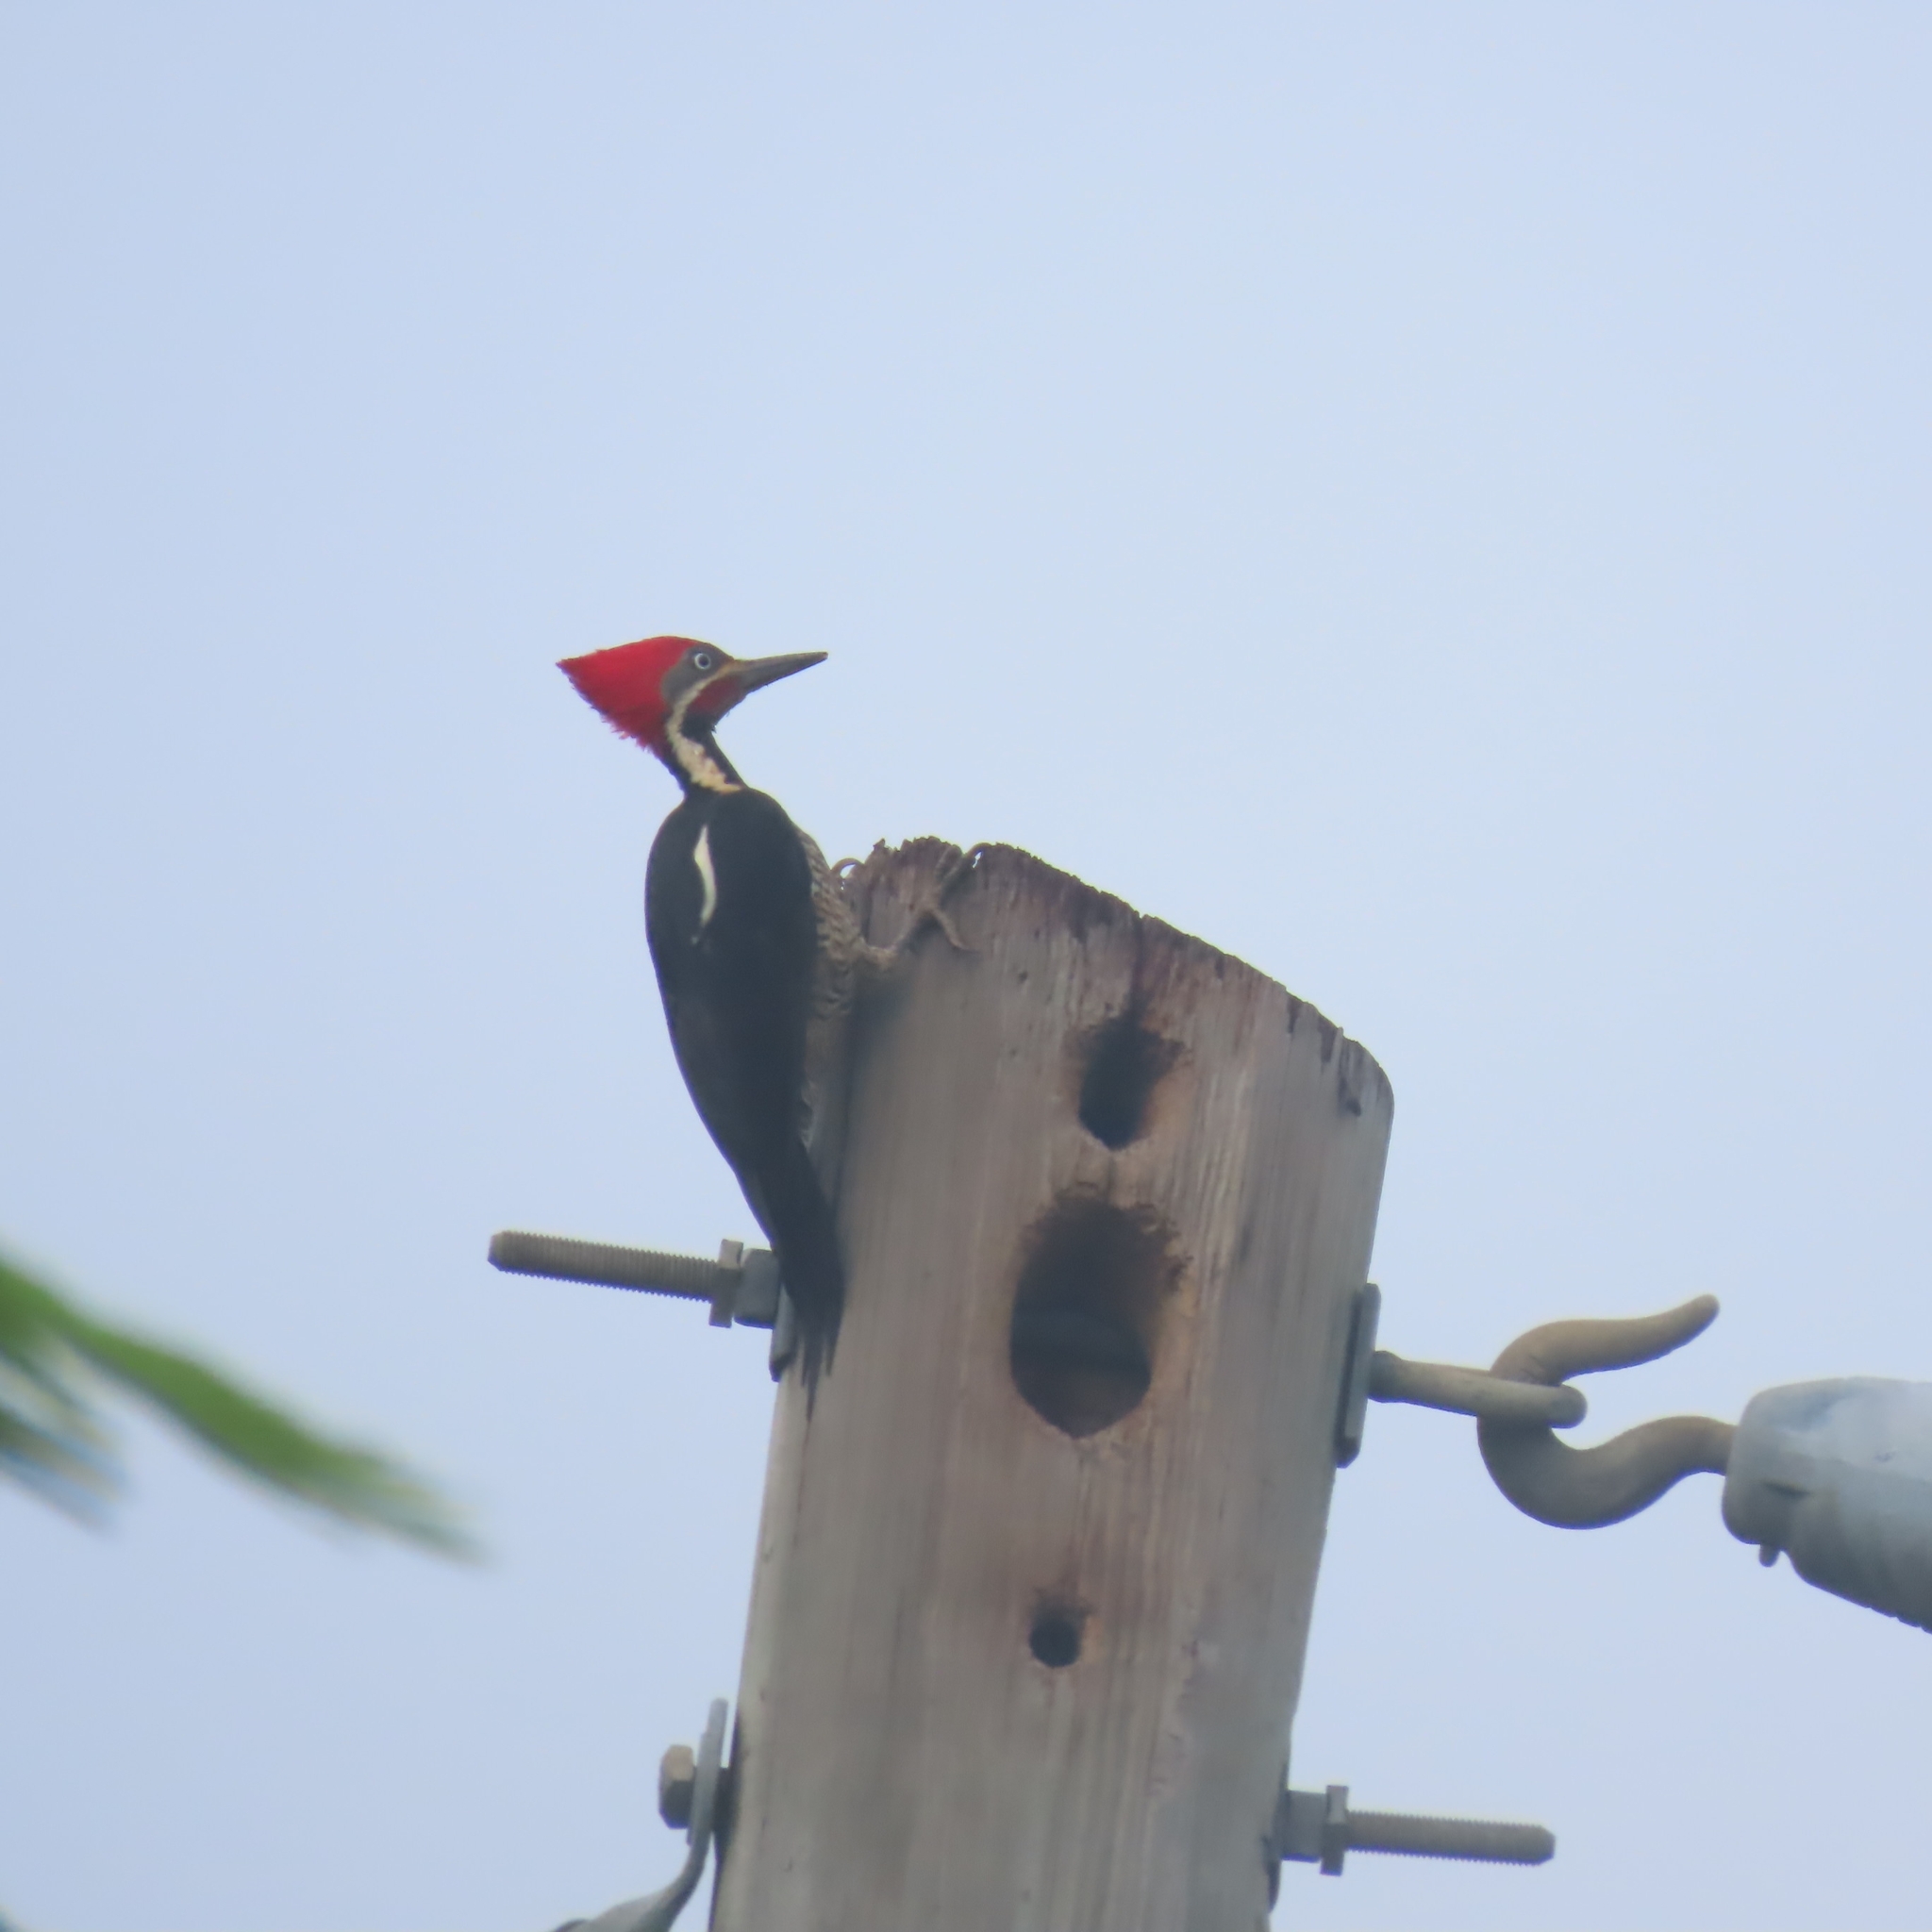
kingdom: Animalia
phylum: Chordata
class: Aves
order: Piciformes
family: Picidae
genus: Dryocopus
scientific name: Dryocopus lineatus
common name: Lineated woodpecker
